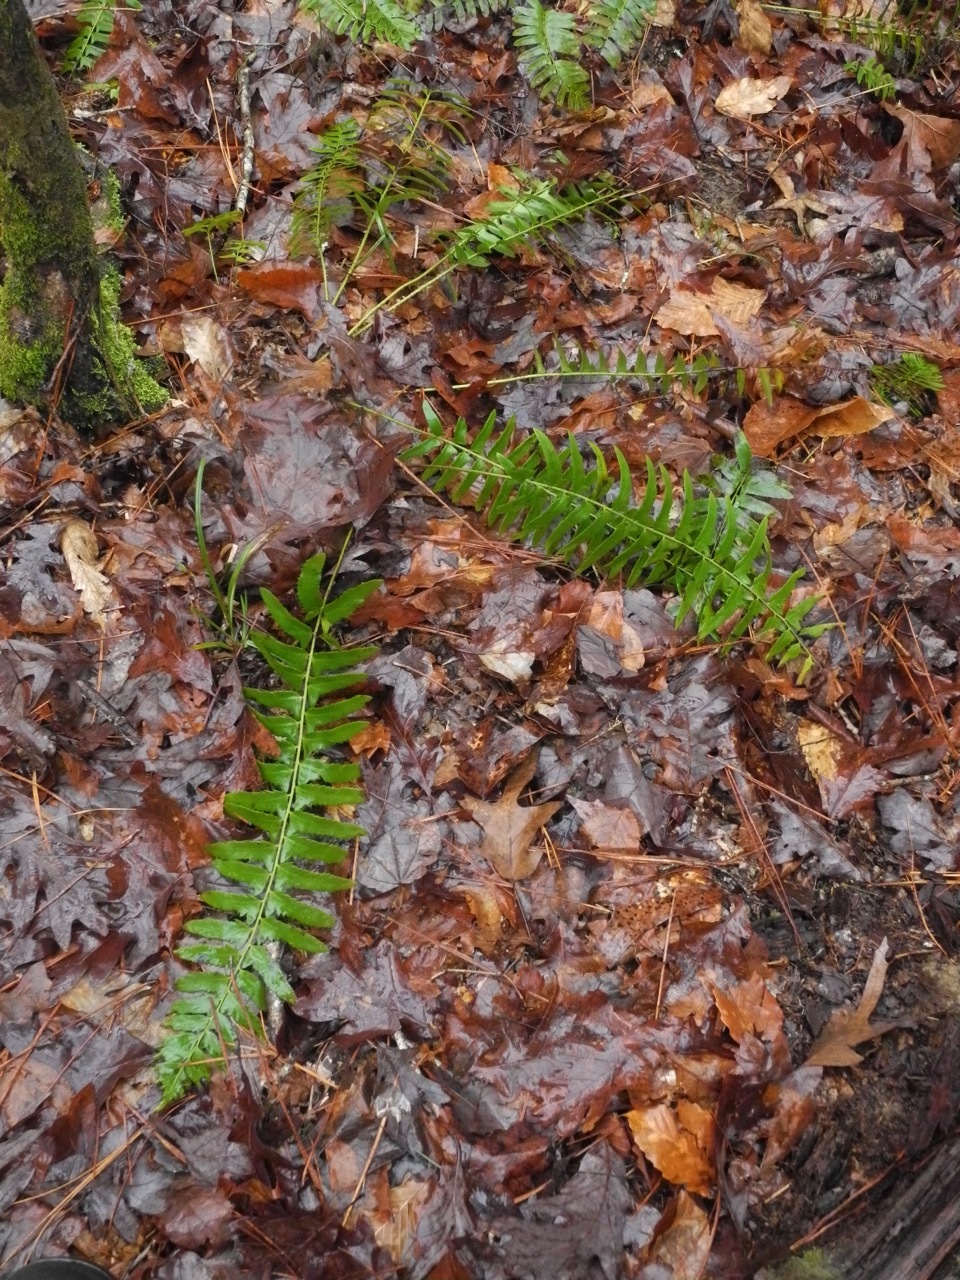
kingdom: Plantae
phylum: Tracheophyta
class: Polypodiopsida
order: Polypodiales
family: Dryopteridaceae
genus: Polystichum
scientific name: Polystichum acrostichoides
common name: Christmas fern
